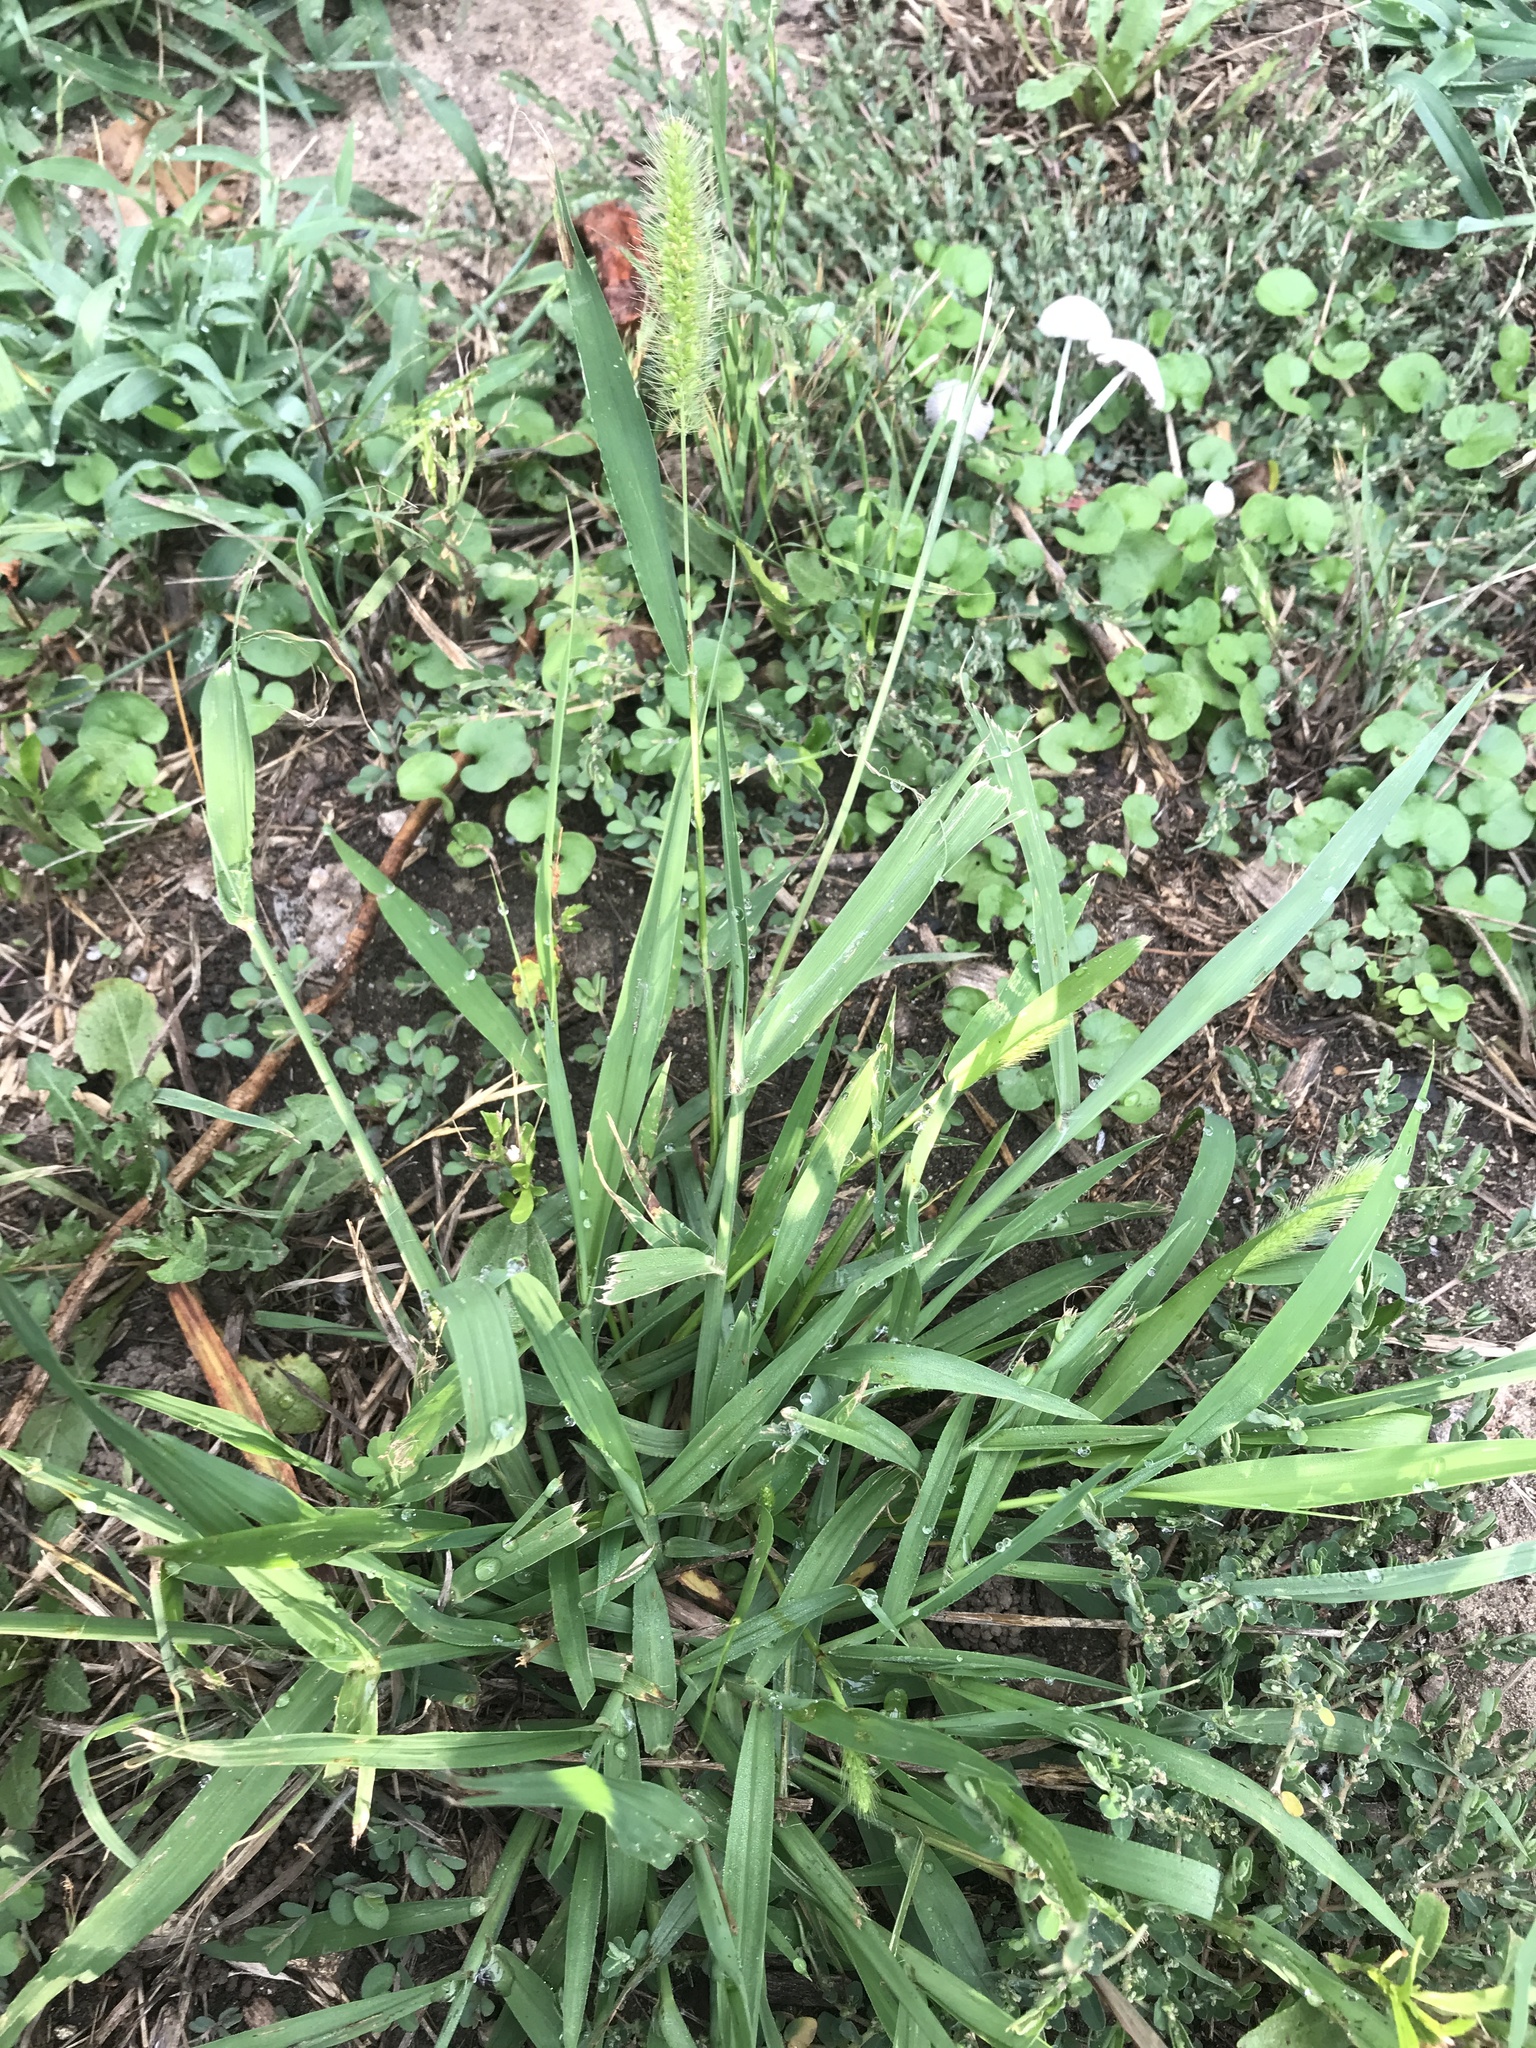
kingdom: Plantae
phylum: Tracheophyta
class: Liliopsida
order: Poales
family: Poaceae
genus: Setaria
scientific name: Setaria viridis
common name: Green bristlegrass
